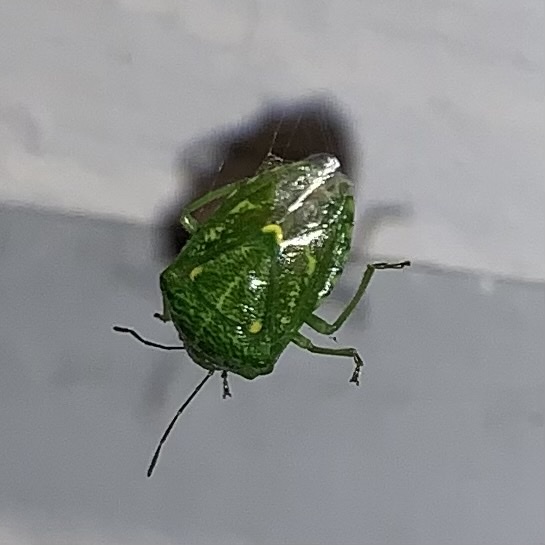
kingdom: Animalia
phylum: Arthropoda
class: Insecta
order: Hemiptera
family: Pentatomidae
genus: Banasa
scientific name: Banasa euchlora
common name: Cedar berry bug
